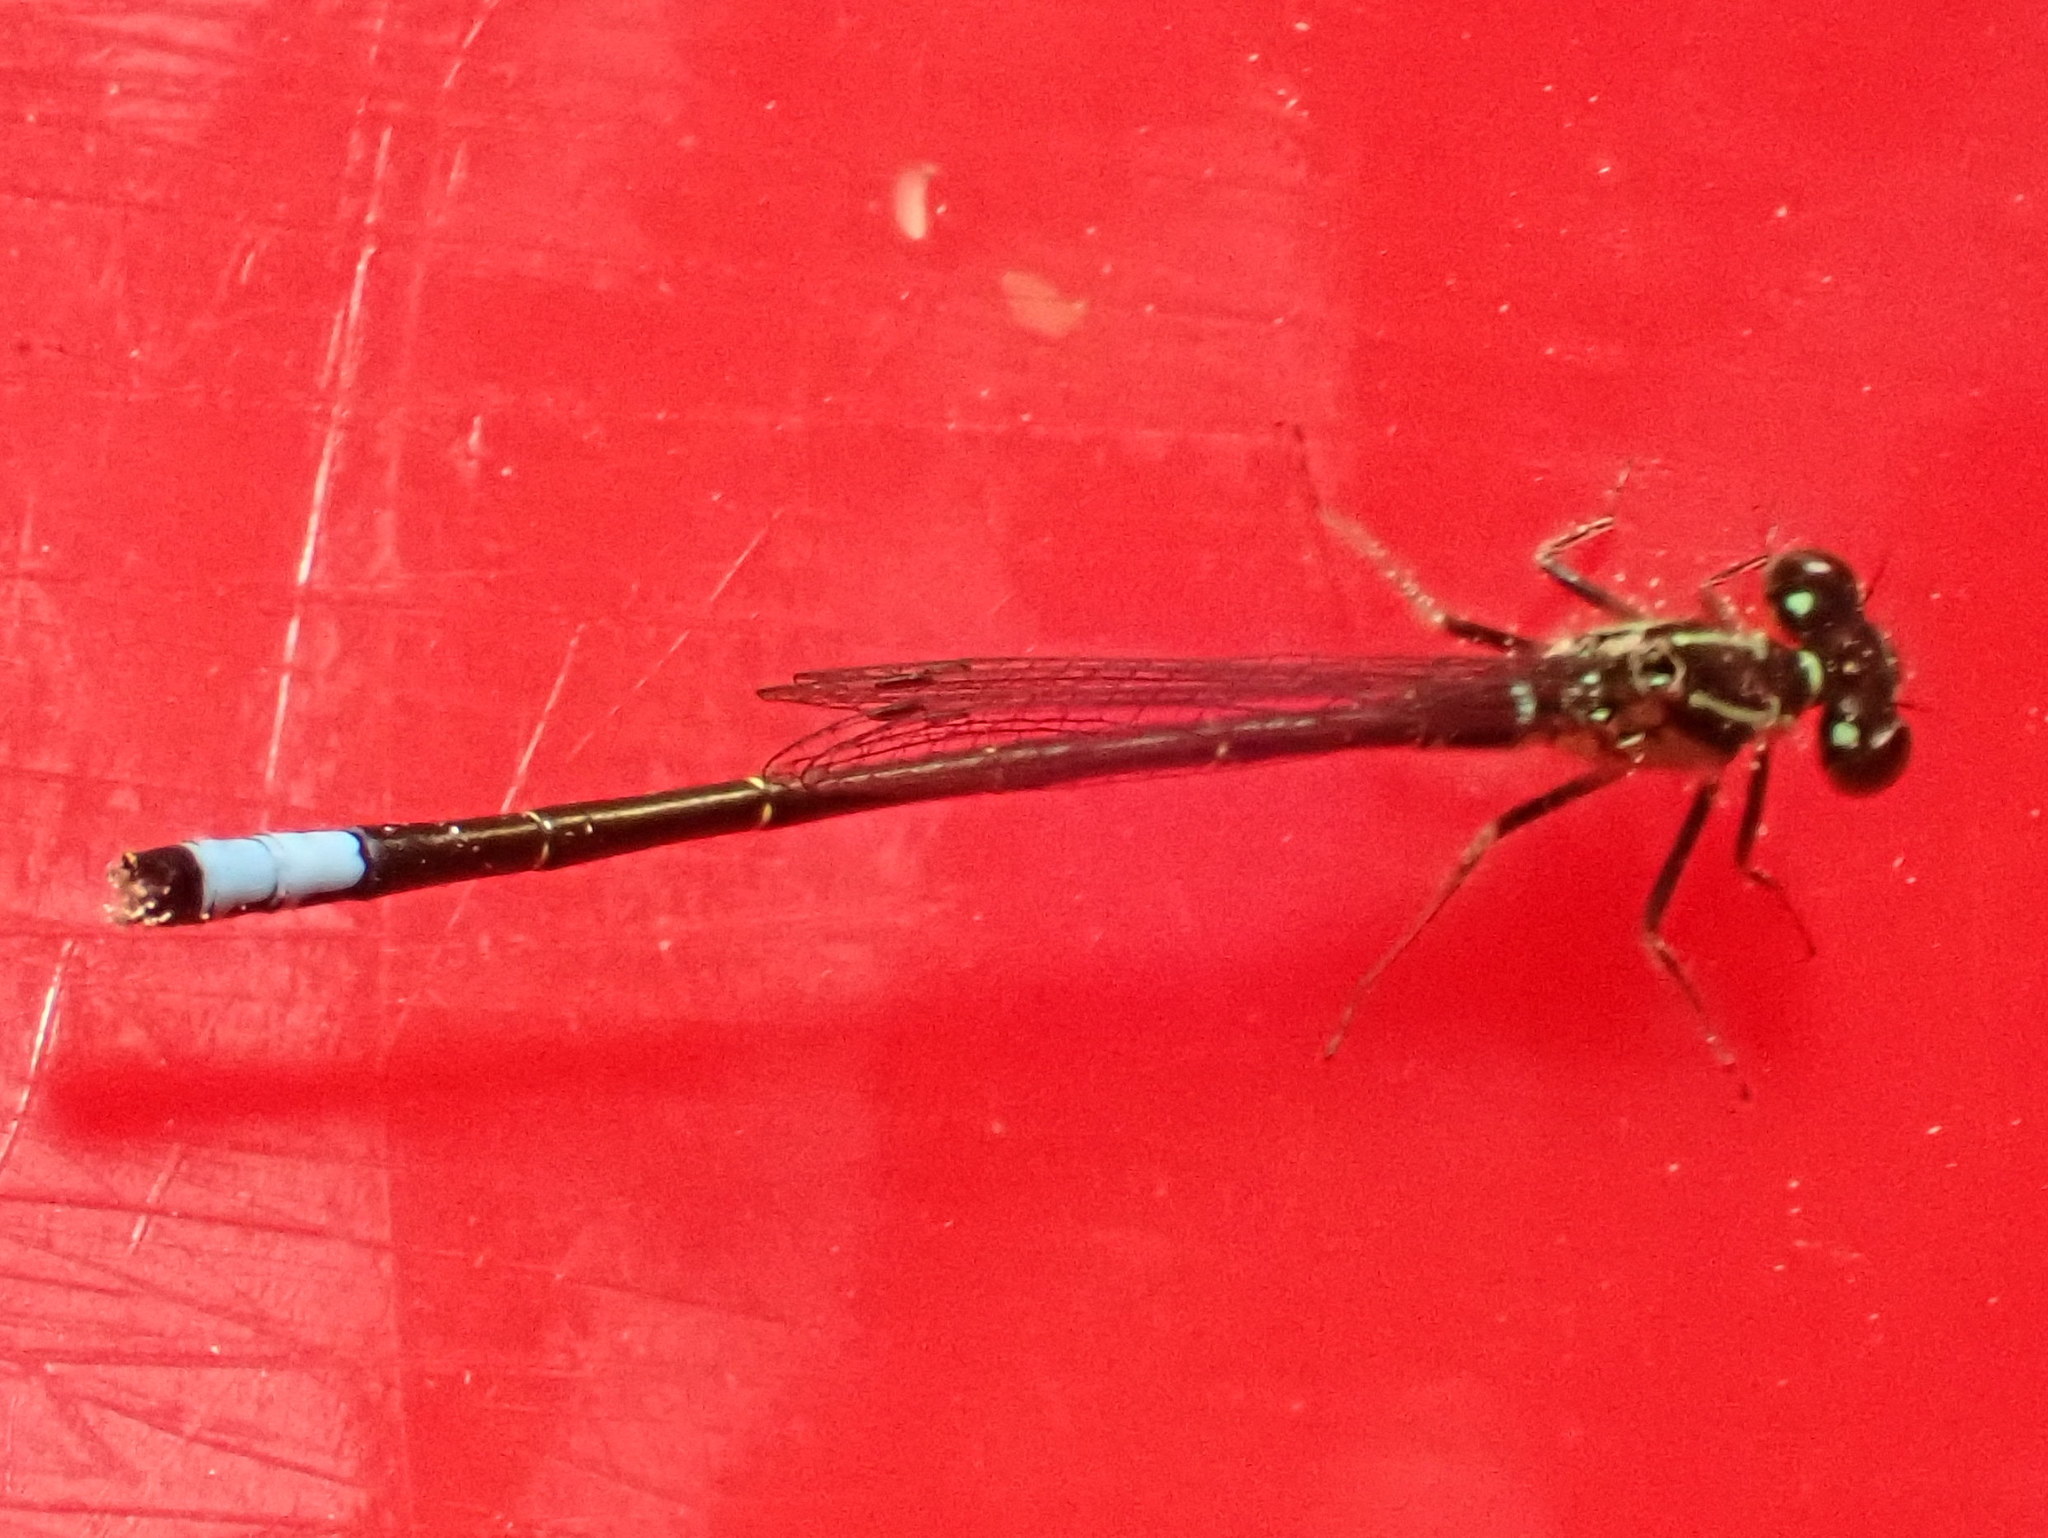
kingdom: Animalia
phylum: Arthropoda
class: Insecta
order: Odonata
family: Coenagrionidae
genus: Ischnura
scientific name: Ischnura verticalis
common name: Eastern forktail
